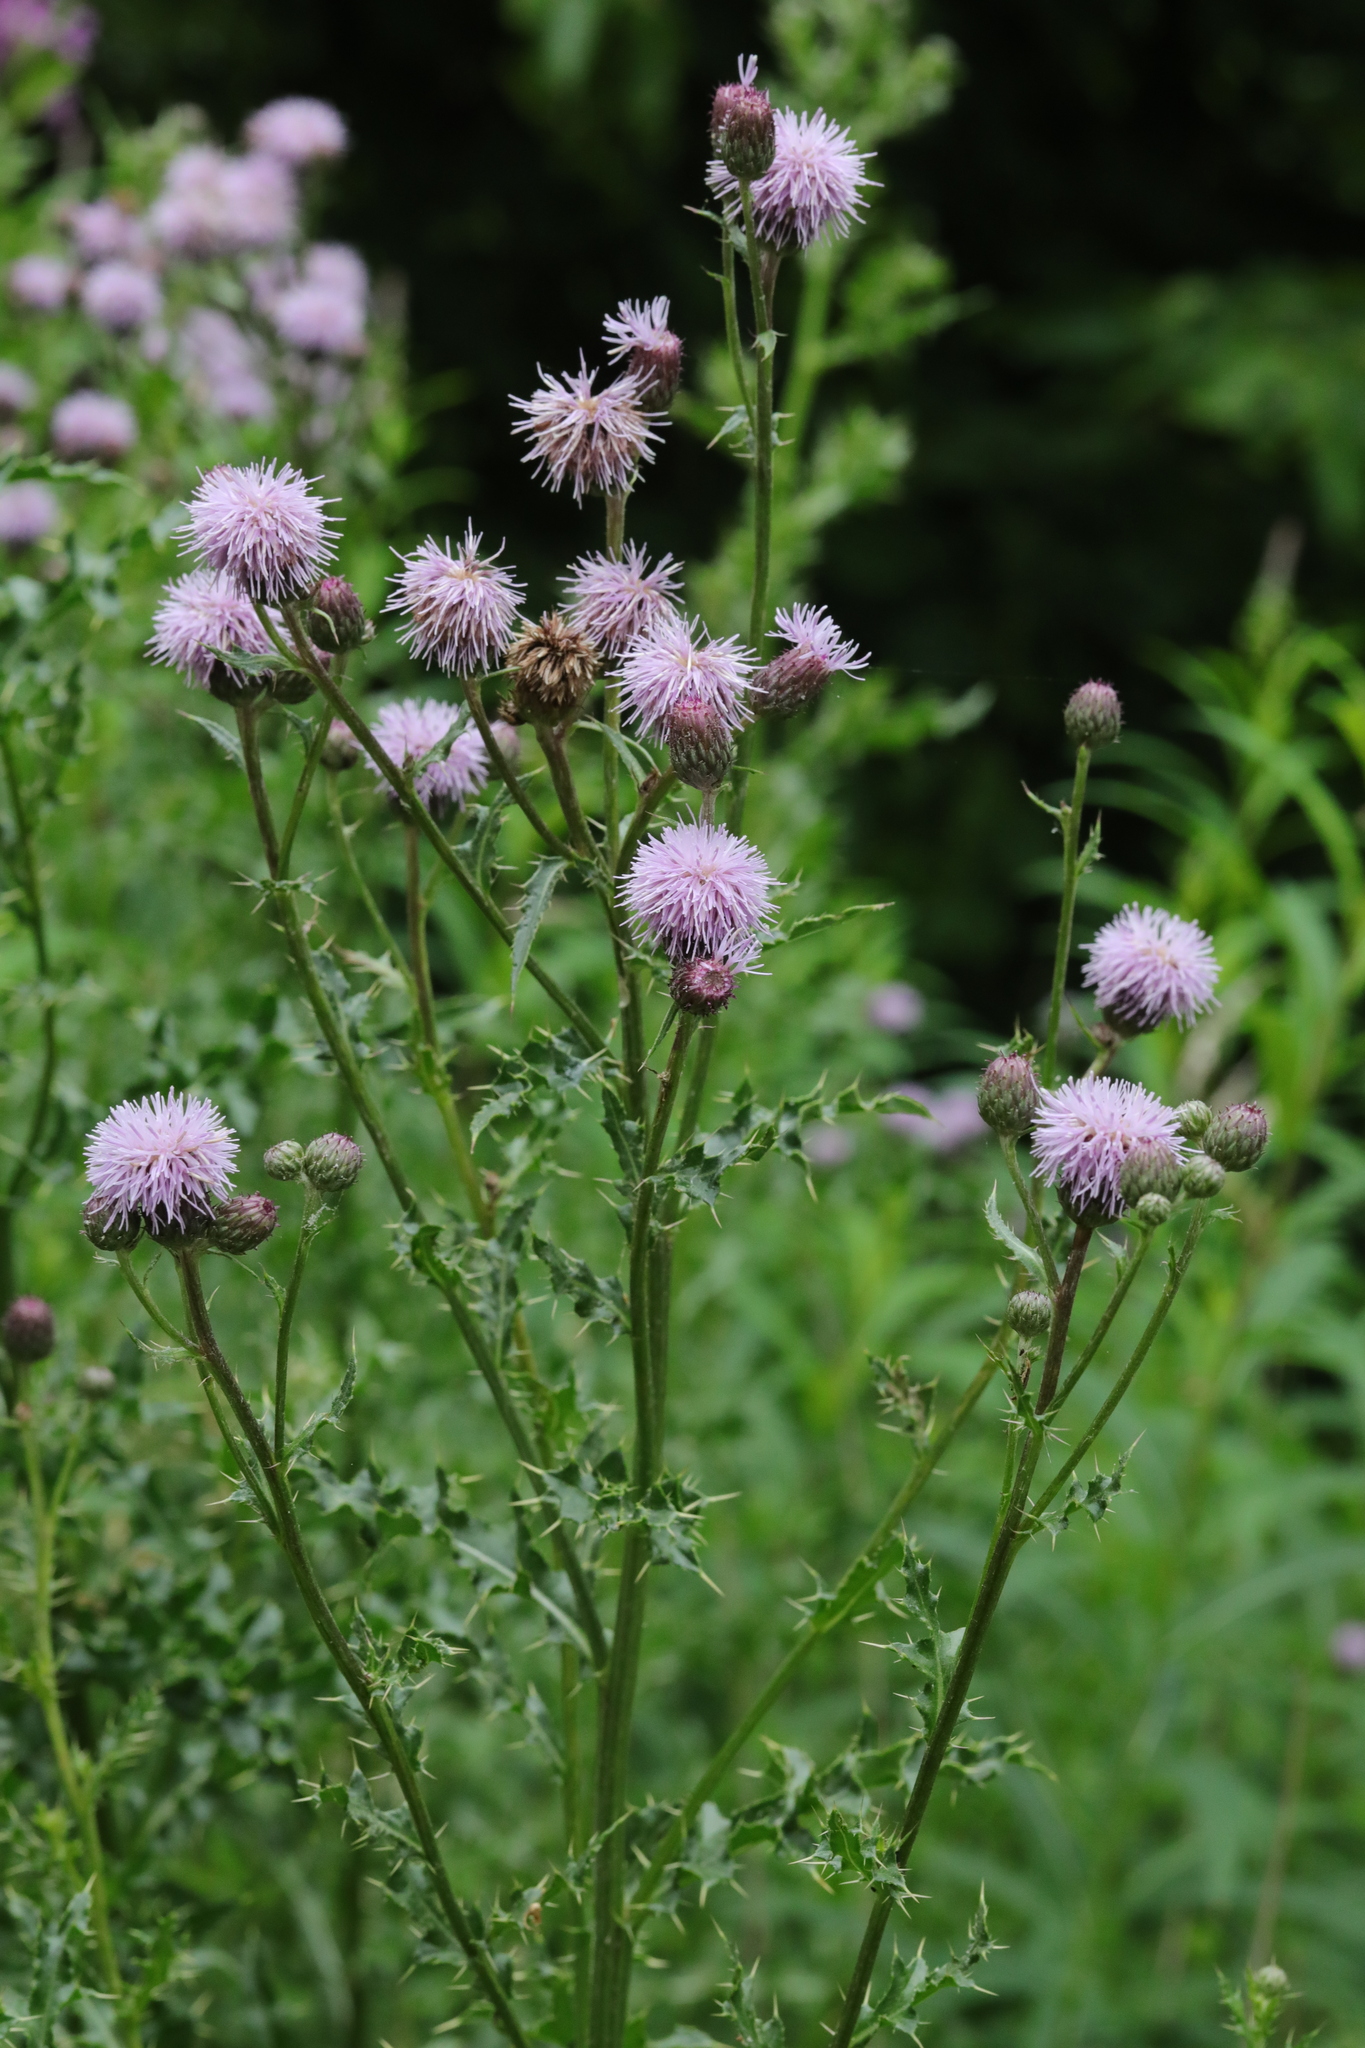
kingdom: Plantae
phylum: Tracheophyta
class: Magnoliopsida
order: Asterales
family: Asteraceae
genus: Cirsium
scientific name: Cirsium arvense
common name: Creeping thistle
